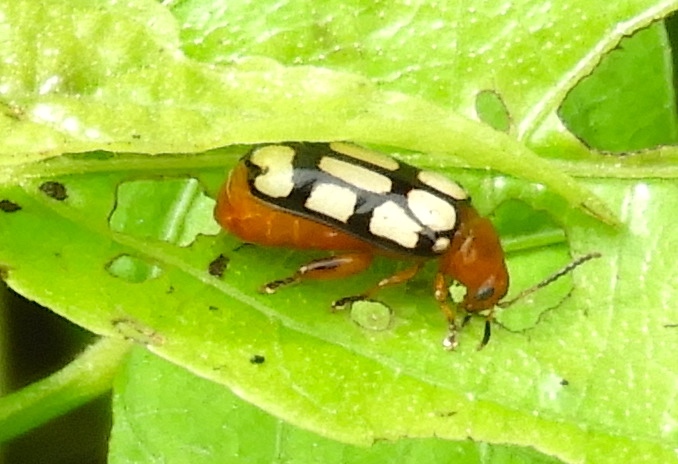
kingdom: Animalia
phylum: Arthropoda
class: Insecta
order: Coleoptera
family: Chrysomelidae
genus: Disonycha
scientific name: Disonycha
